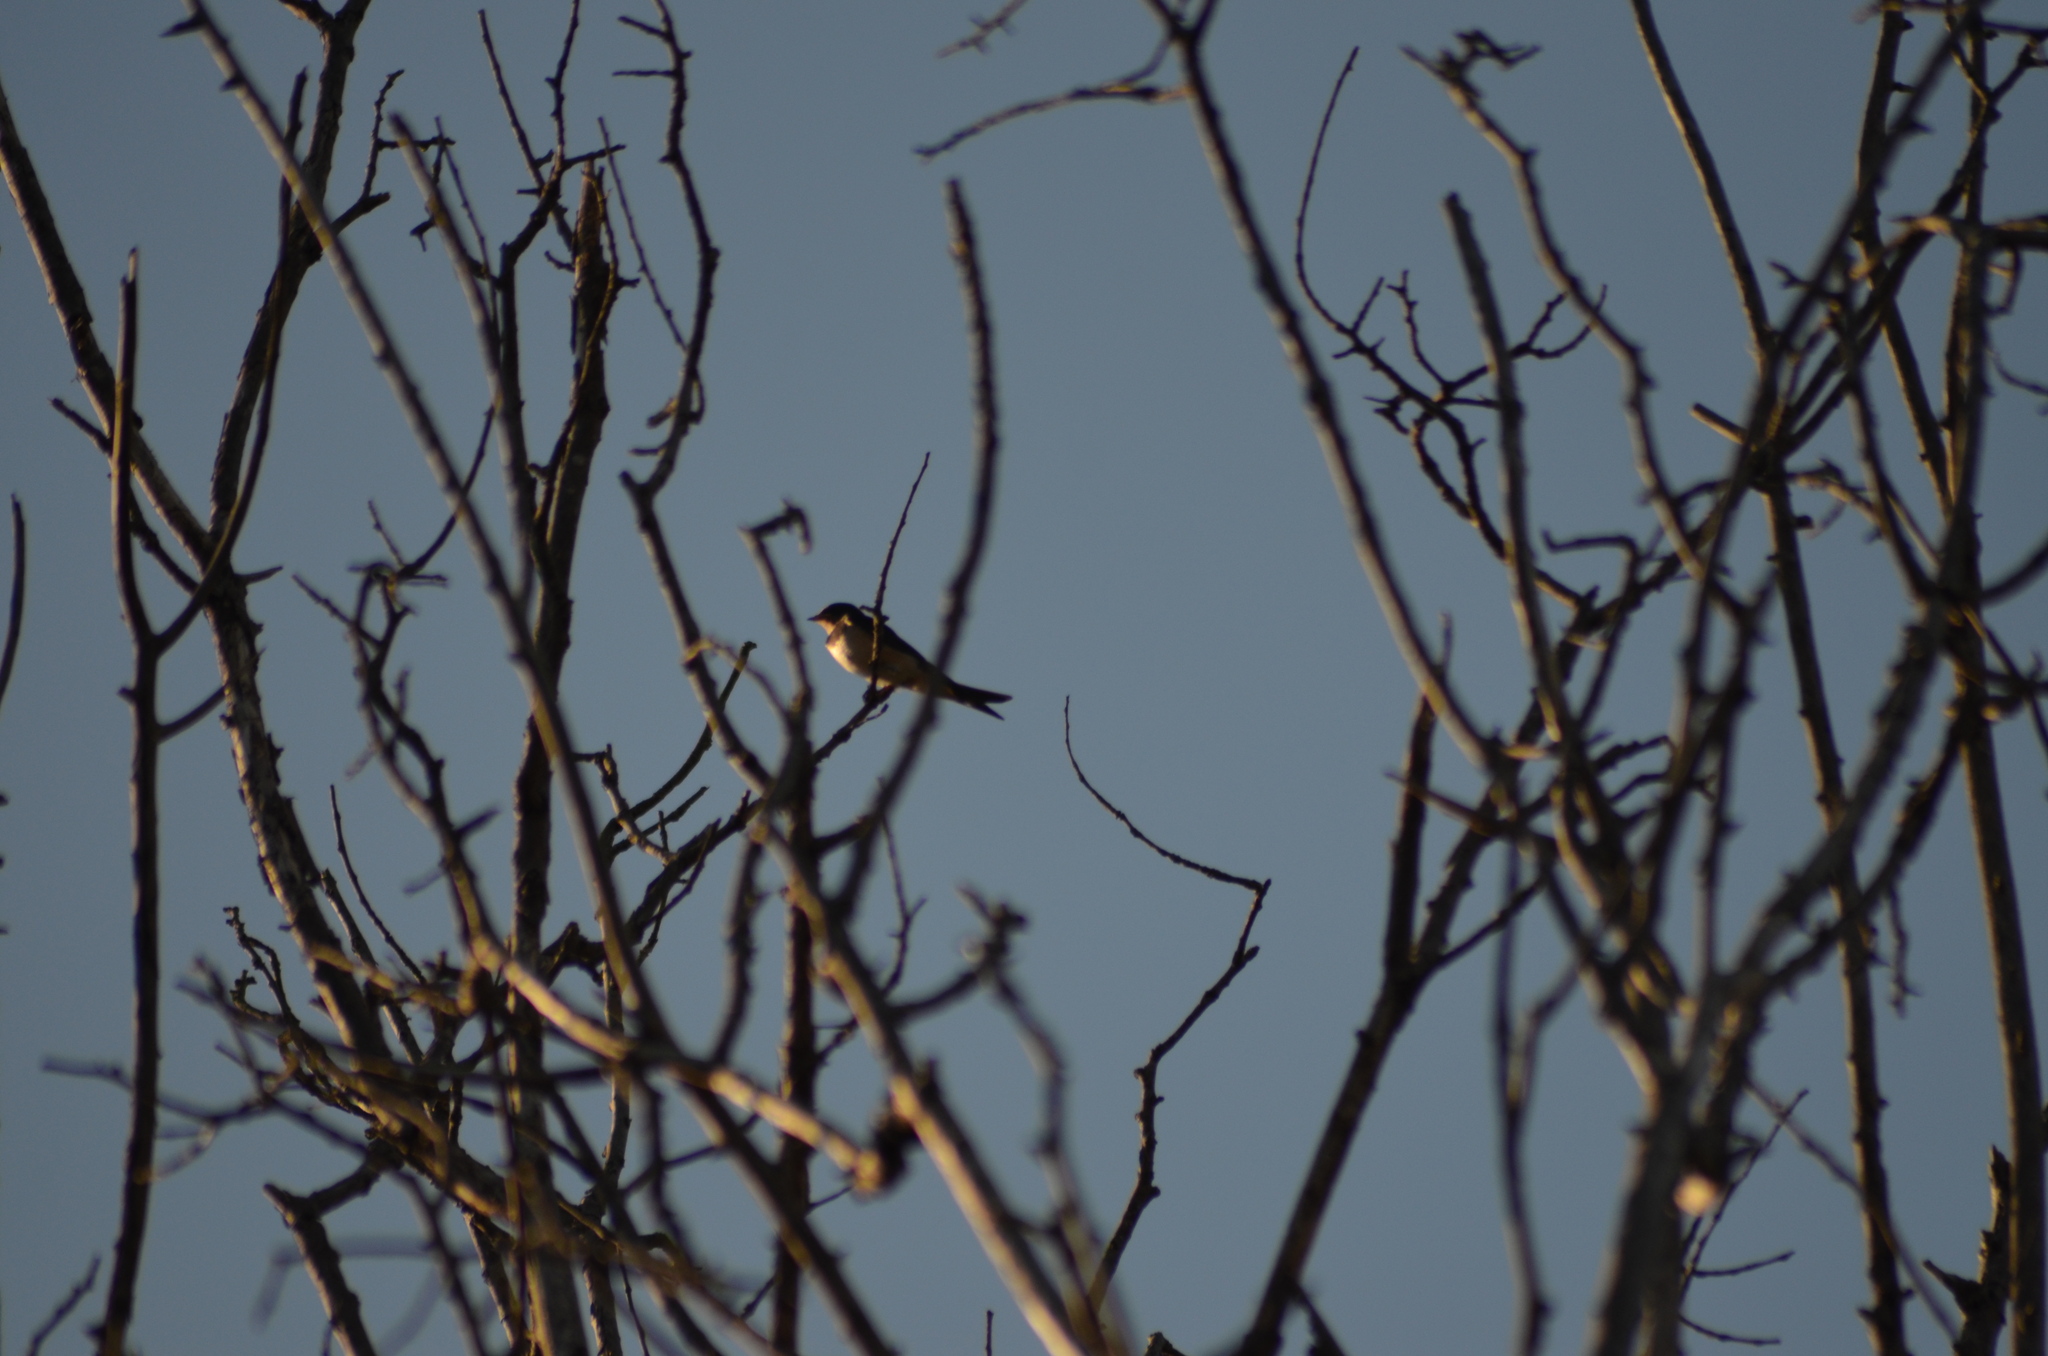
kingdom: Animalia
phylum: Chordata
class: Aves
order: Passeriformes
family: Hirundinidae
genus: Hirundo
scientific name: Hirundo rustica
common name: Barn swallow
